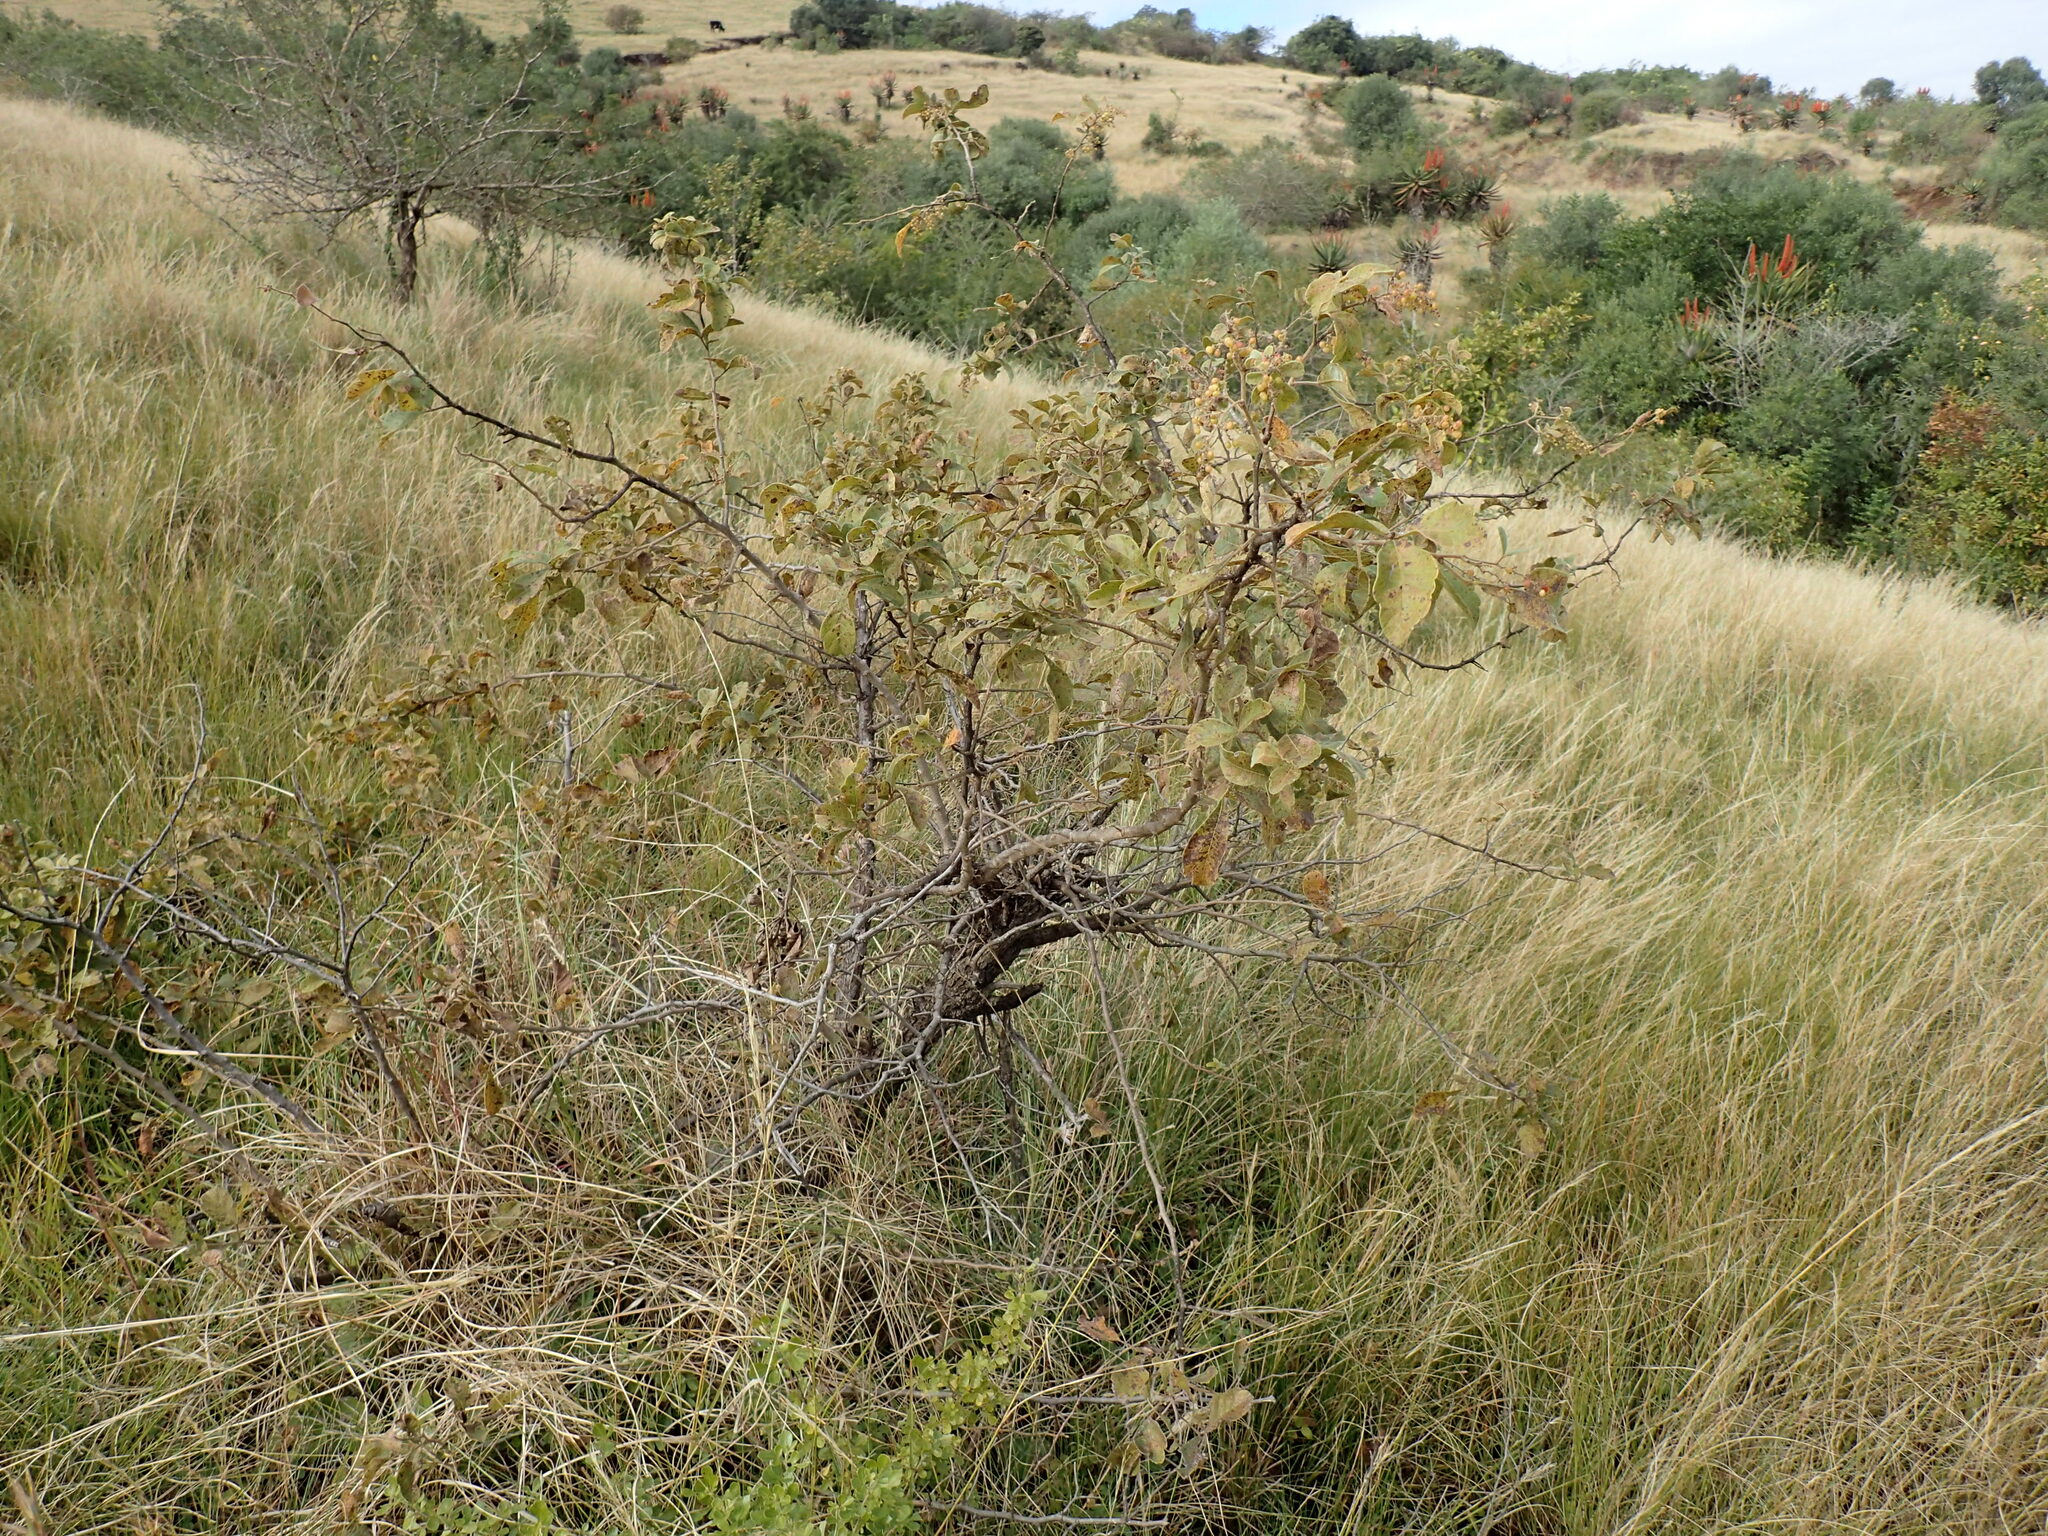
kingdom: Plantae
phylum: Tracheophyta
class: Magnoliopsida
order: Lamiales
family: Verbenaceae
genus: Lantana
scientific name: Lantana camara
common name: Lantana
